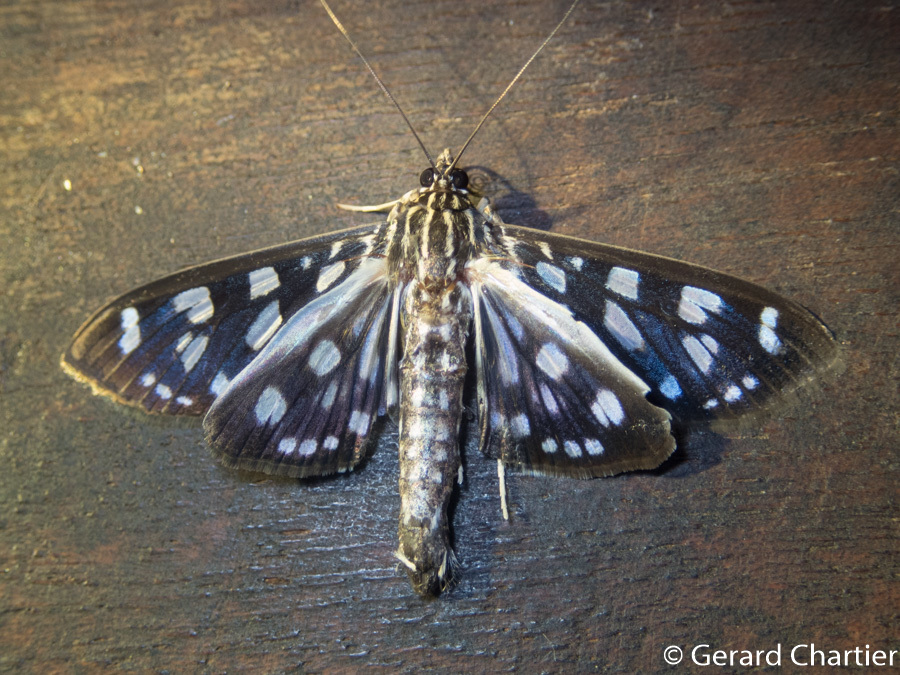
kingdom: Animalia
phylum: Arthropoda
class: Insecta
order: Lepidoptera
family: Crambidae
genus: Pygospila
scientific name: Pygospila tyres
